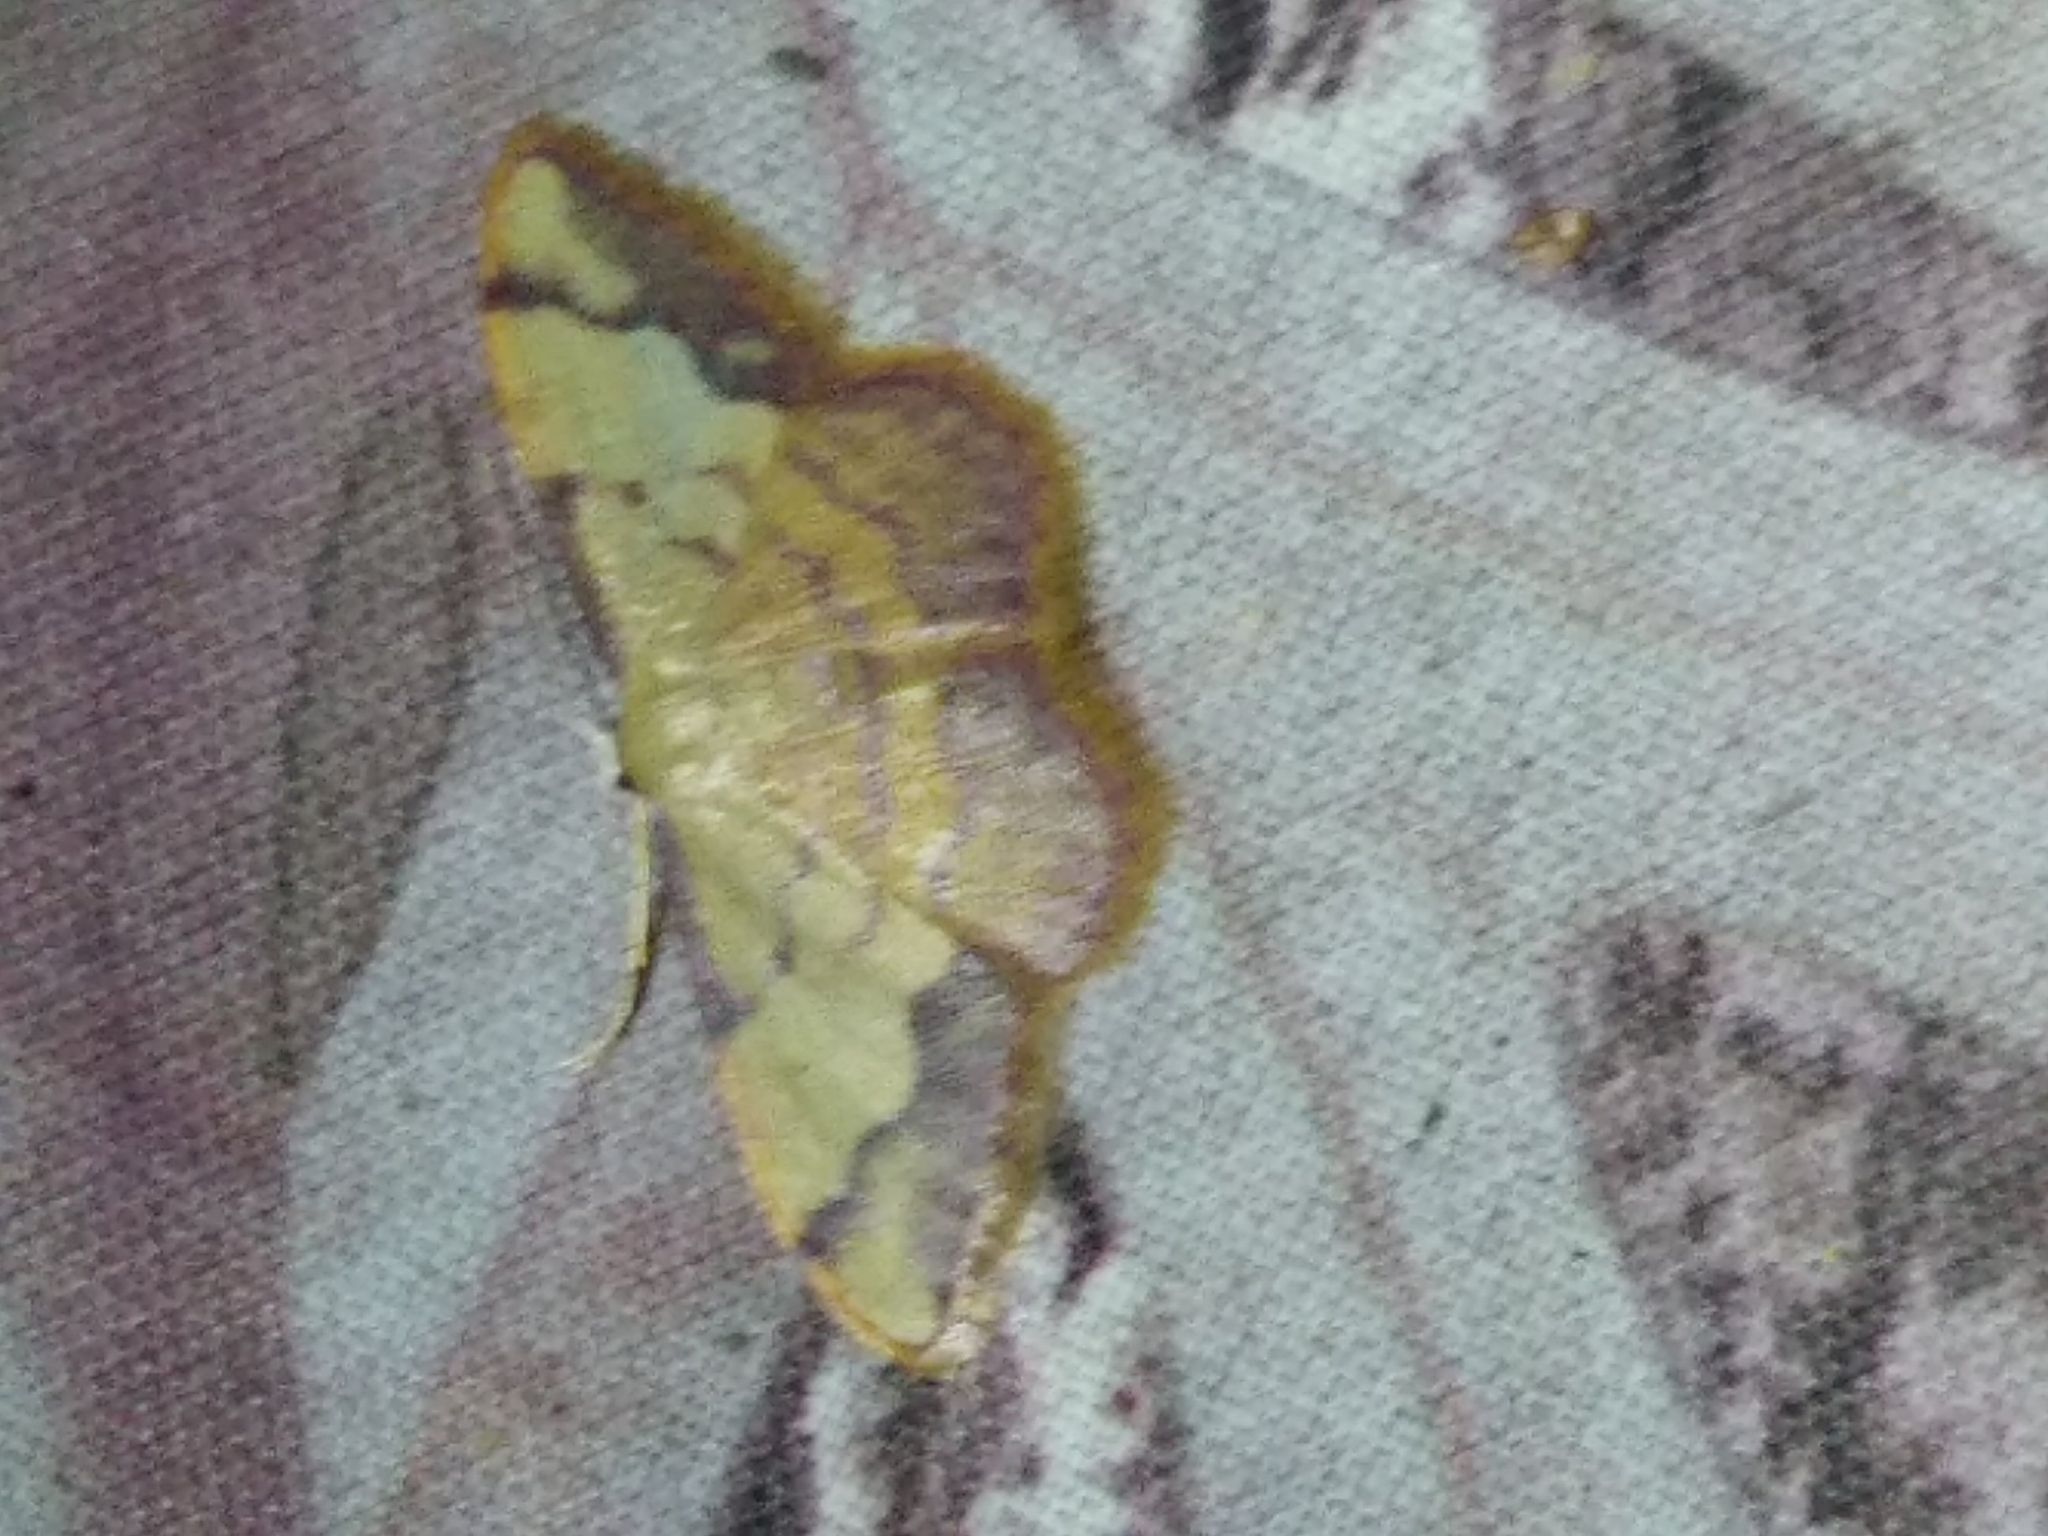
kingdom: Animalia
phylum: Arthropoda
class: Insecta
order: Lepidoptera
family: Geometridae
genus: Idaea
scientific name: Idaea ostrinaria
